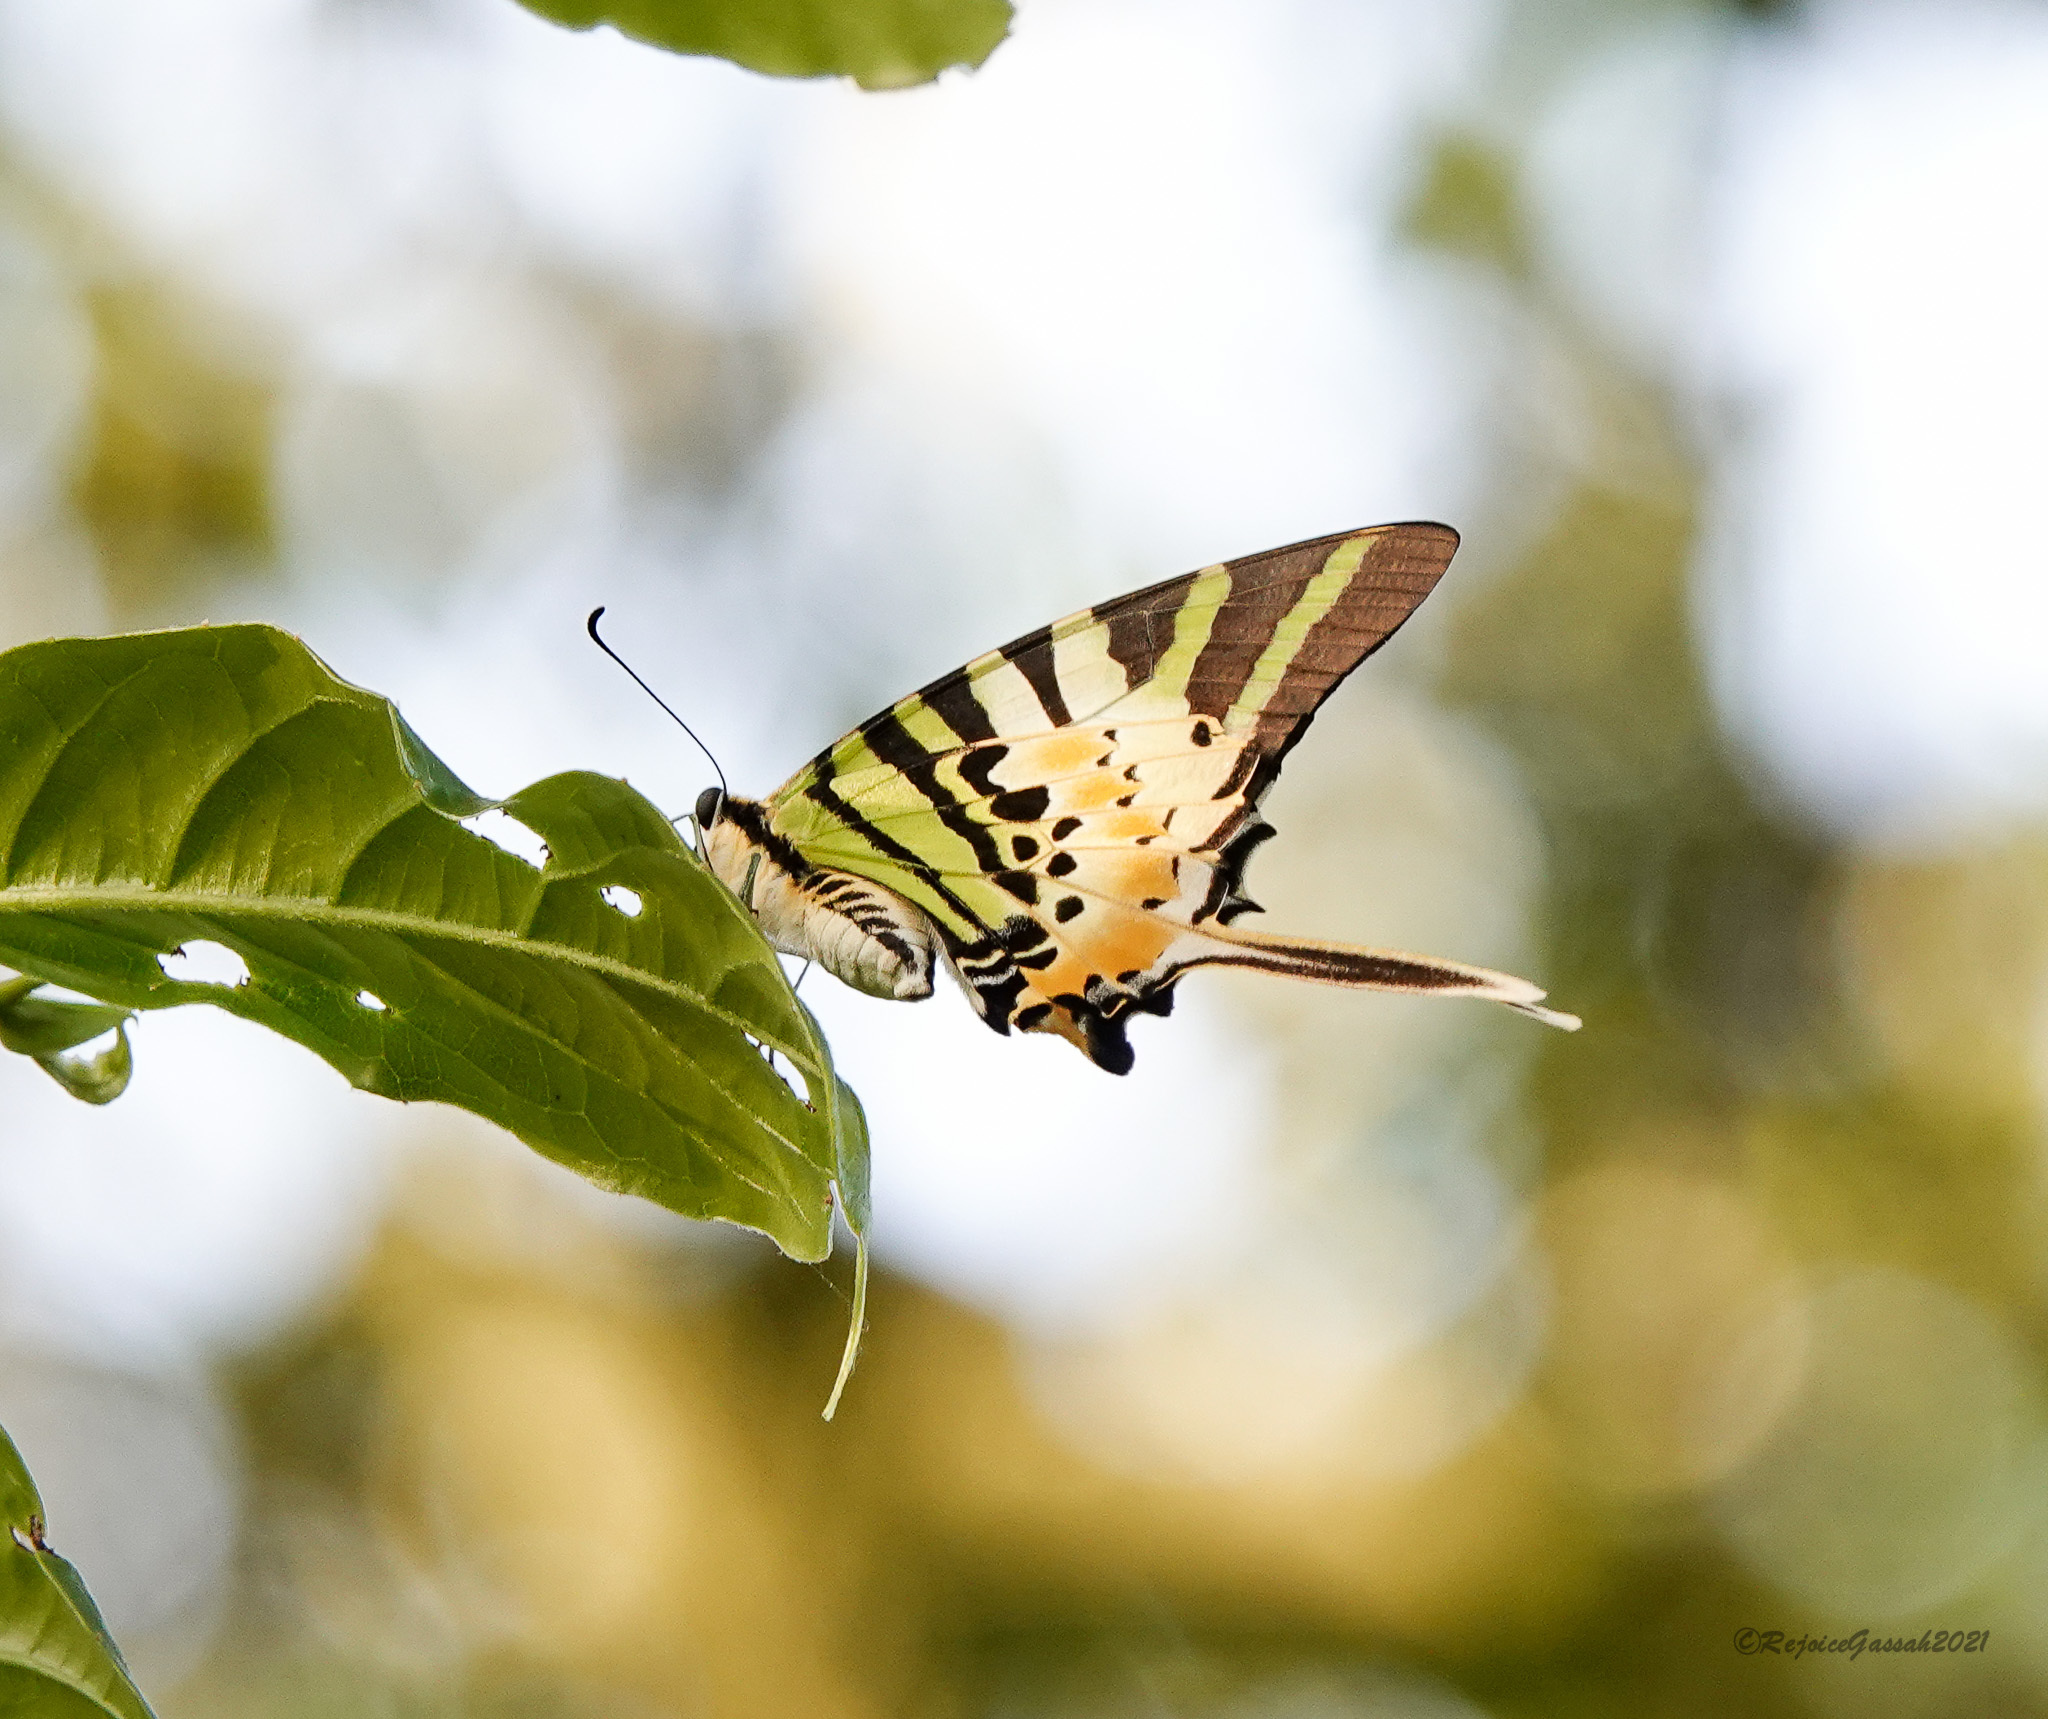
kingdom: Animalia
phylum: Arthropoda
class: Insecta
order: Lepidoptera
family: Papilionidae
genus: Graphium
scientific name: Graphium antiphates
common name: Fivebar swordtail
